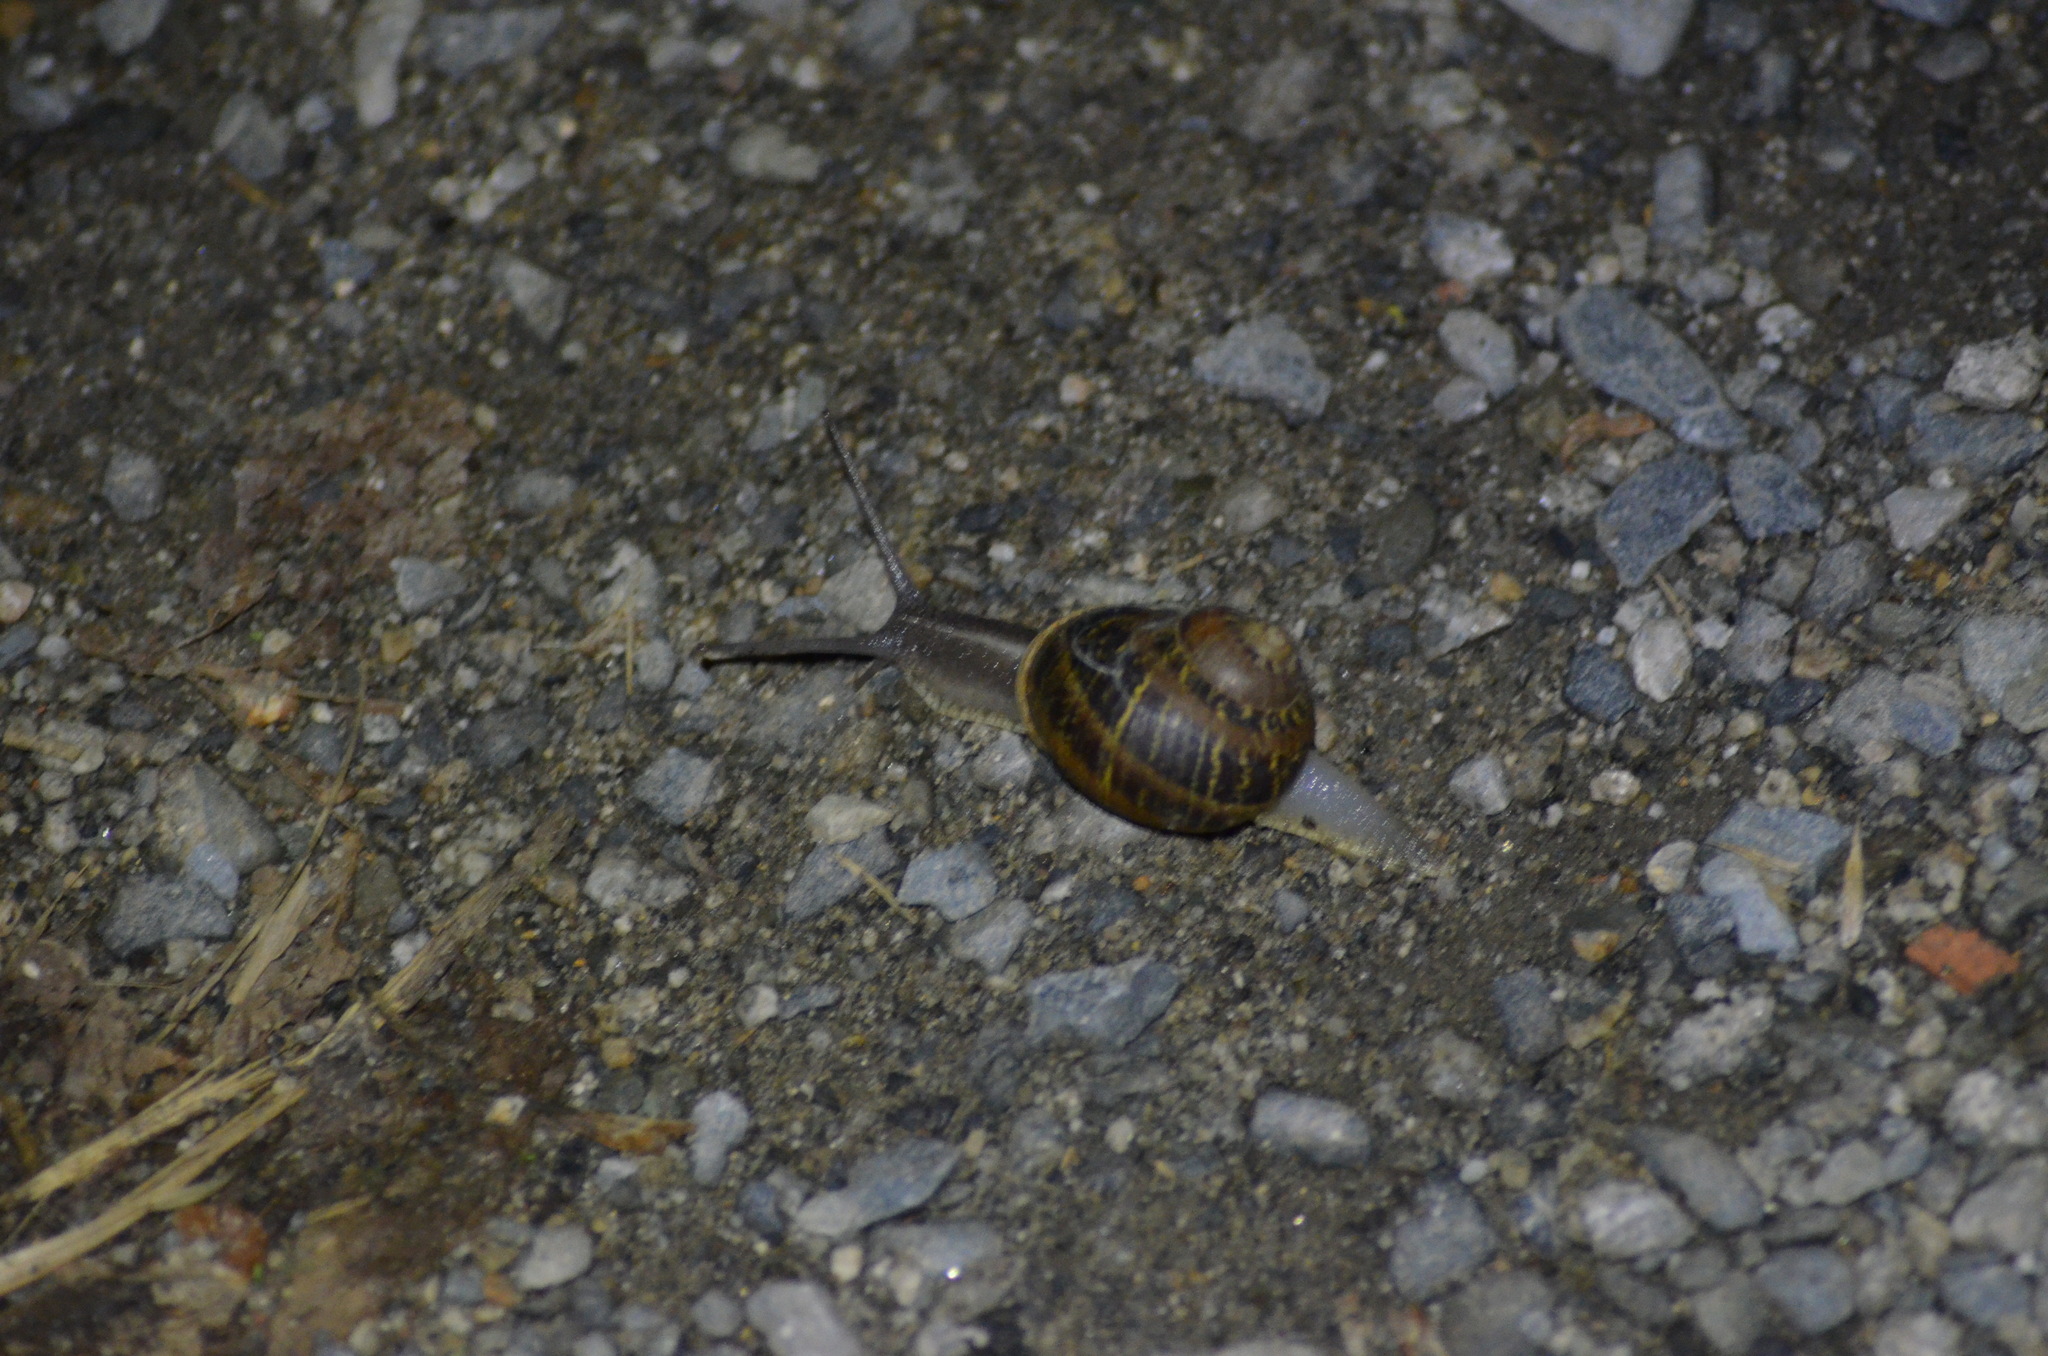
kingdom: Animalia
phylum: Mollusca
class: Gastropoda
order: Stylommatophora
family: Helicidae
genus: Cornu
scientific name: Cornu aspersum
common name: Brown garden snail
